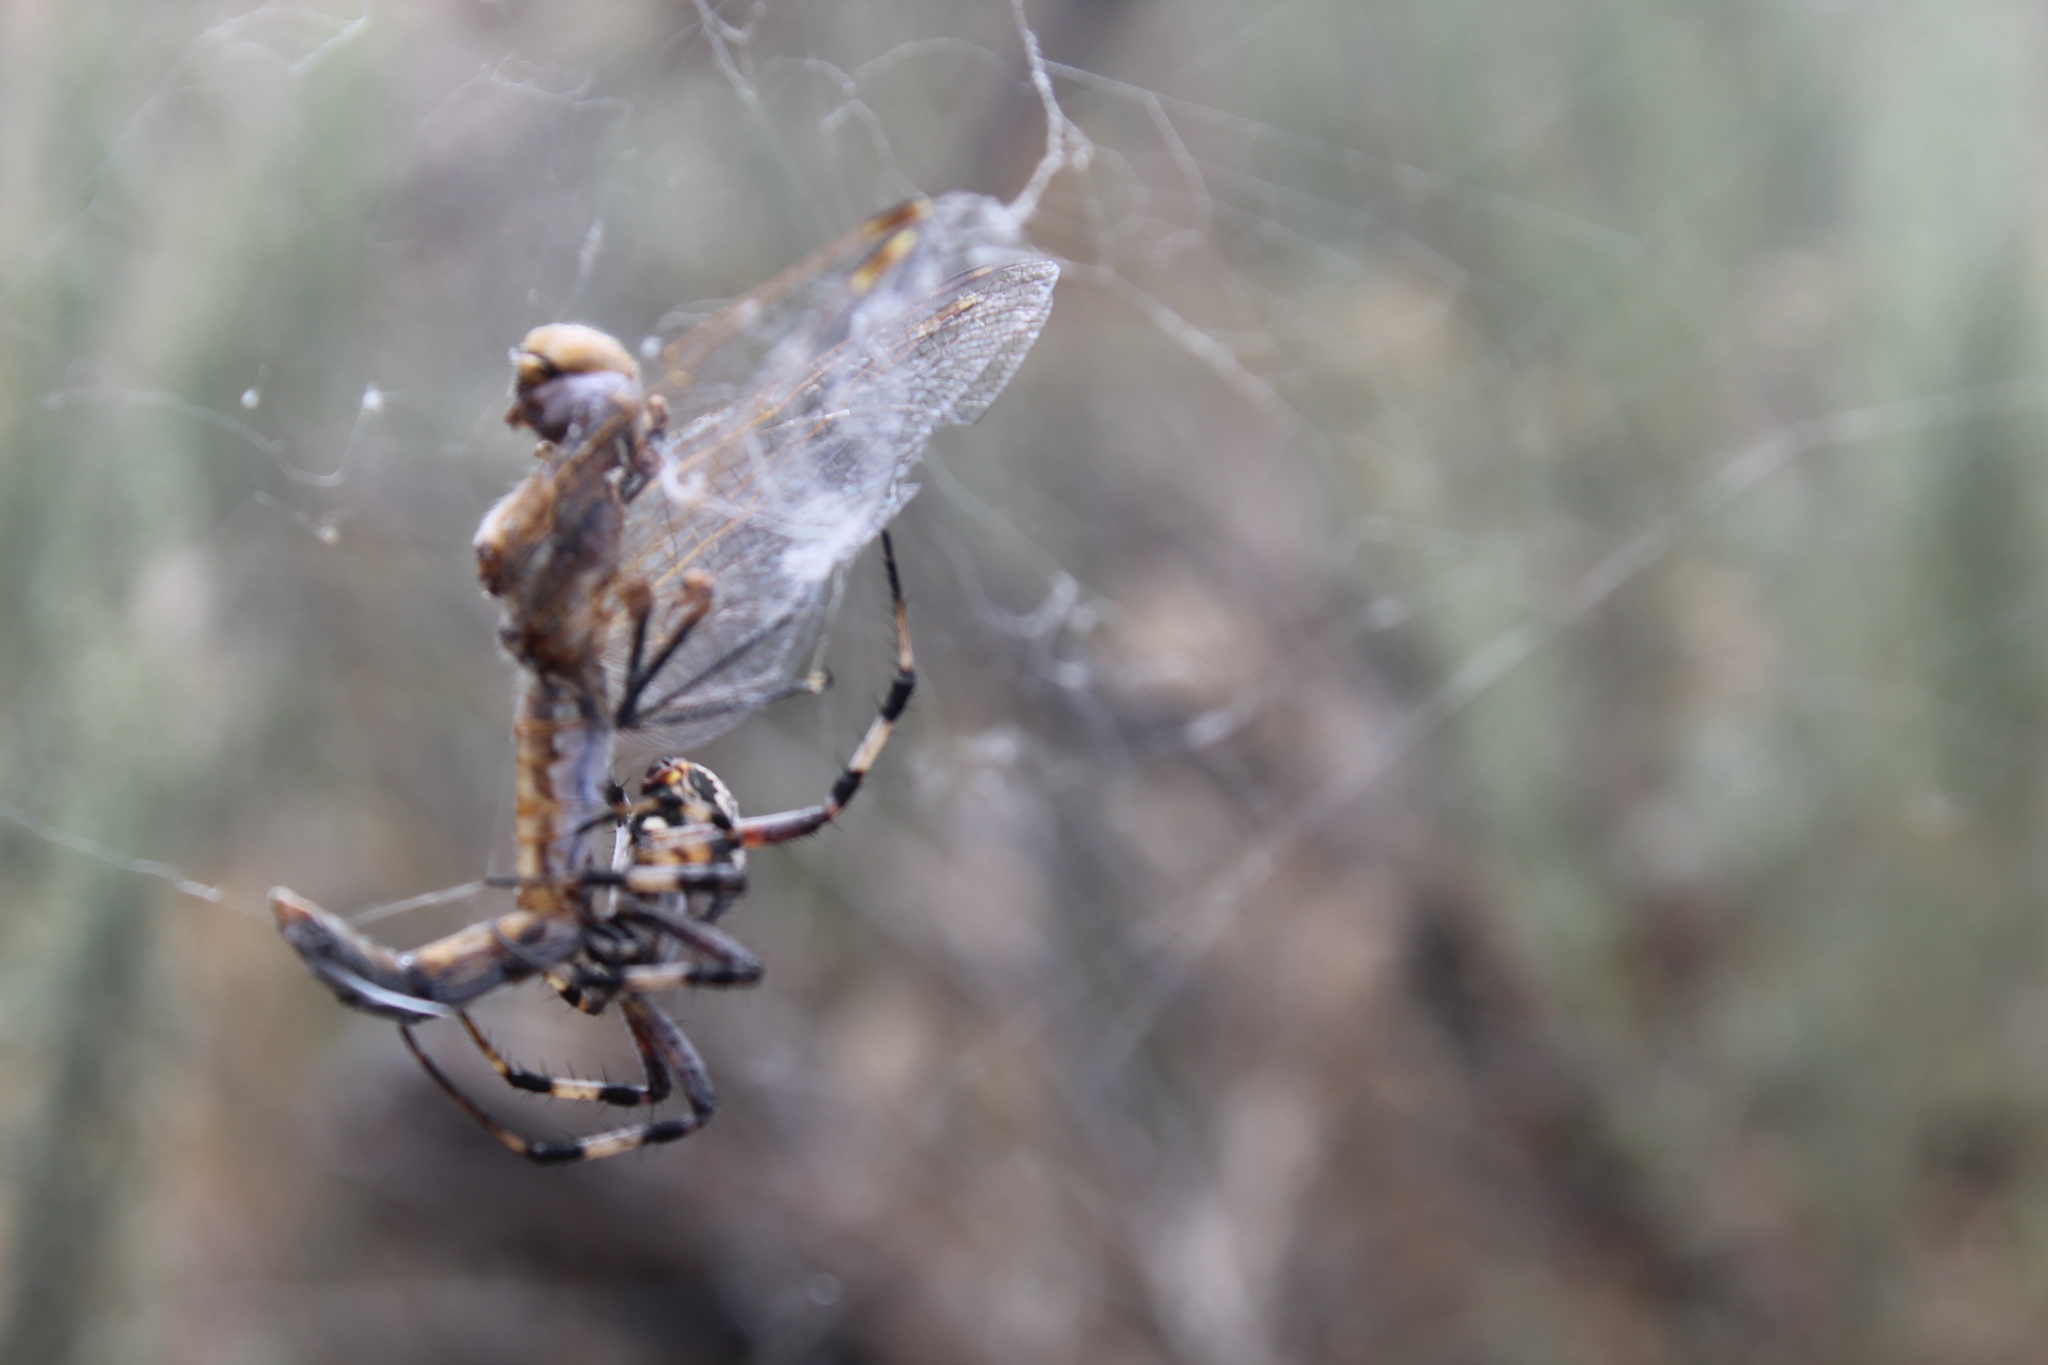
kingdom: Animalia
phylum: Arthropoda
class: Arachnida
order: Araneae
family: Araneidae
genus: Neoscona
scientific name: Neoscona oaxacensis
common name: Orb weavers
